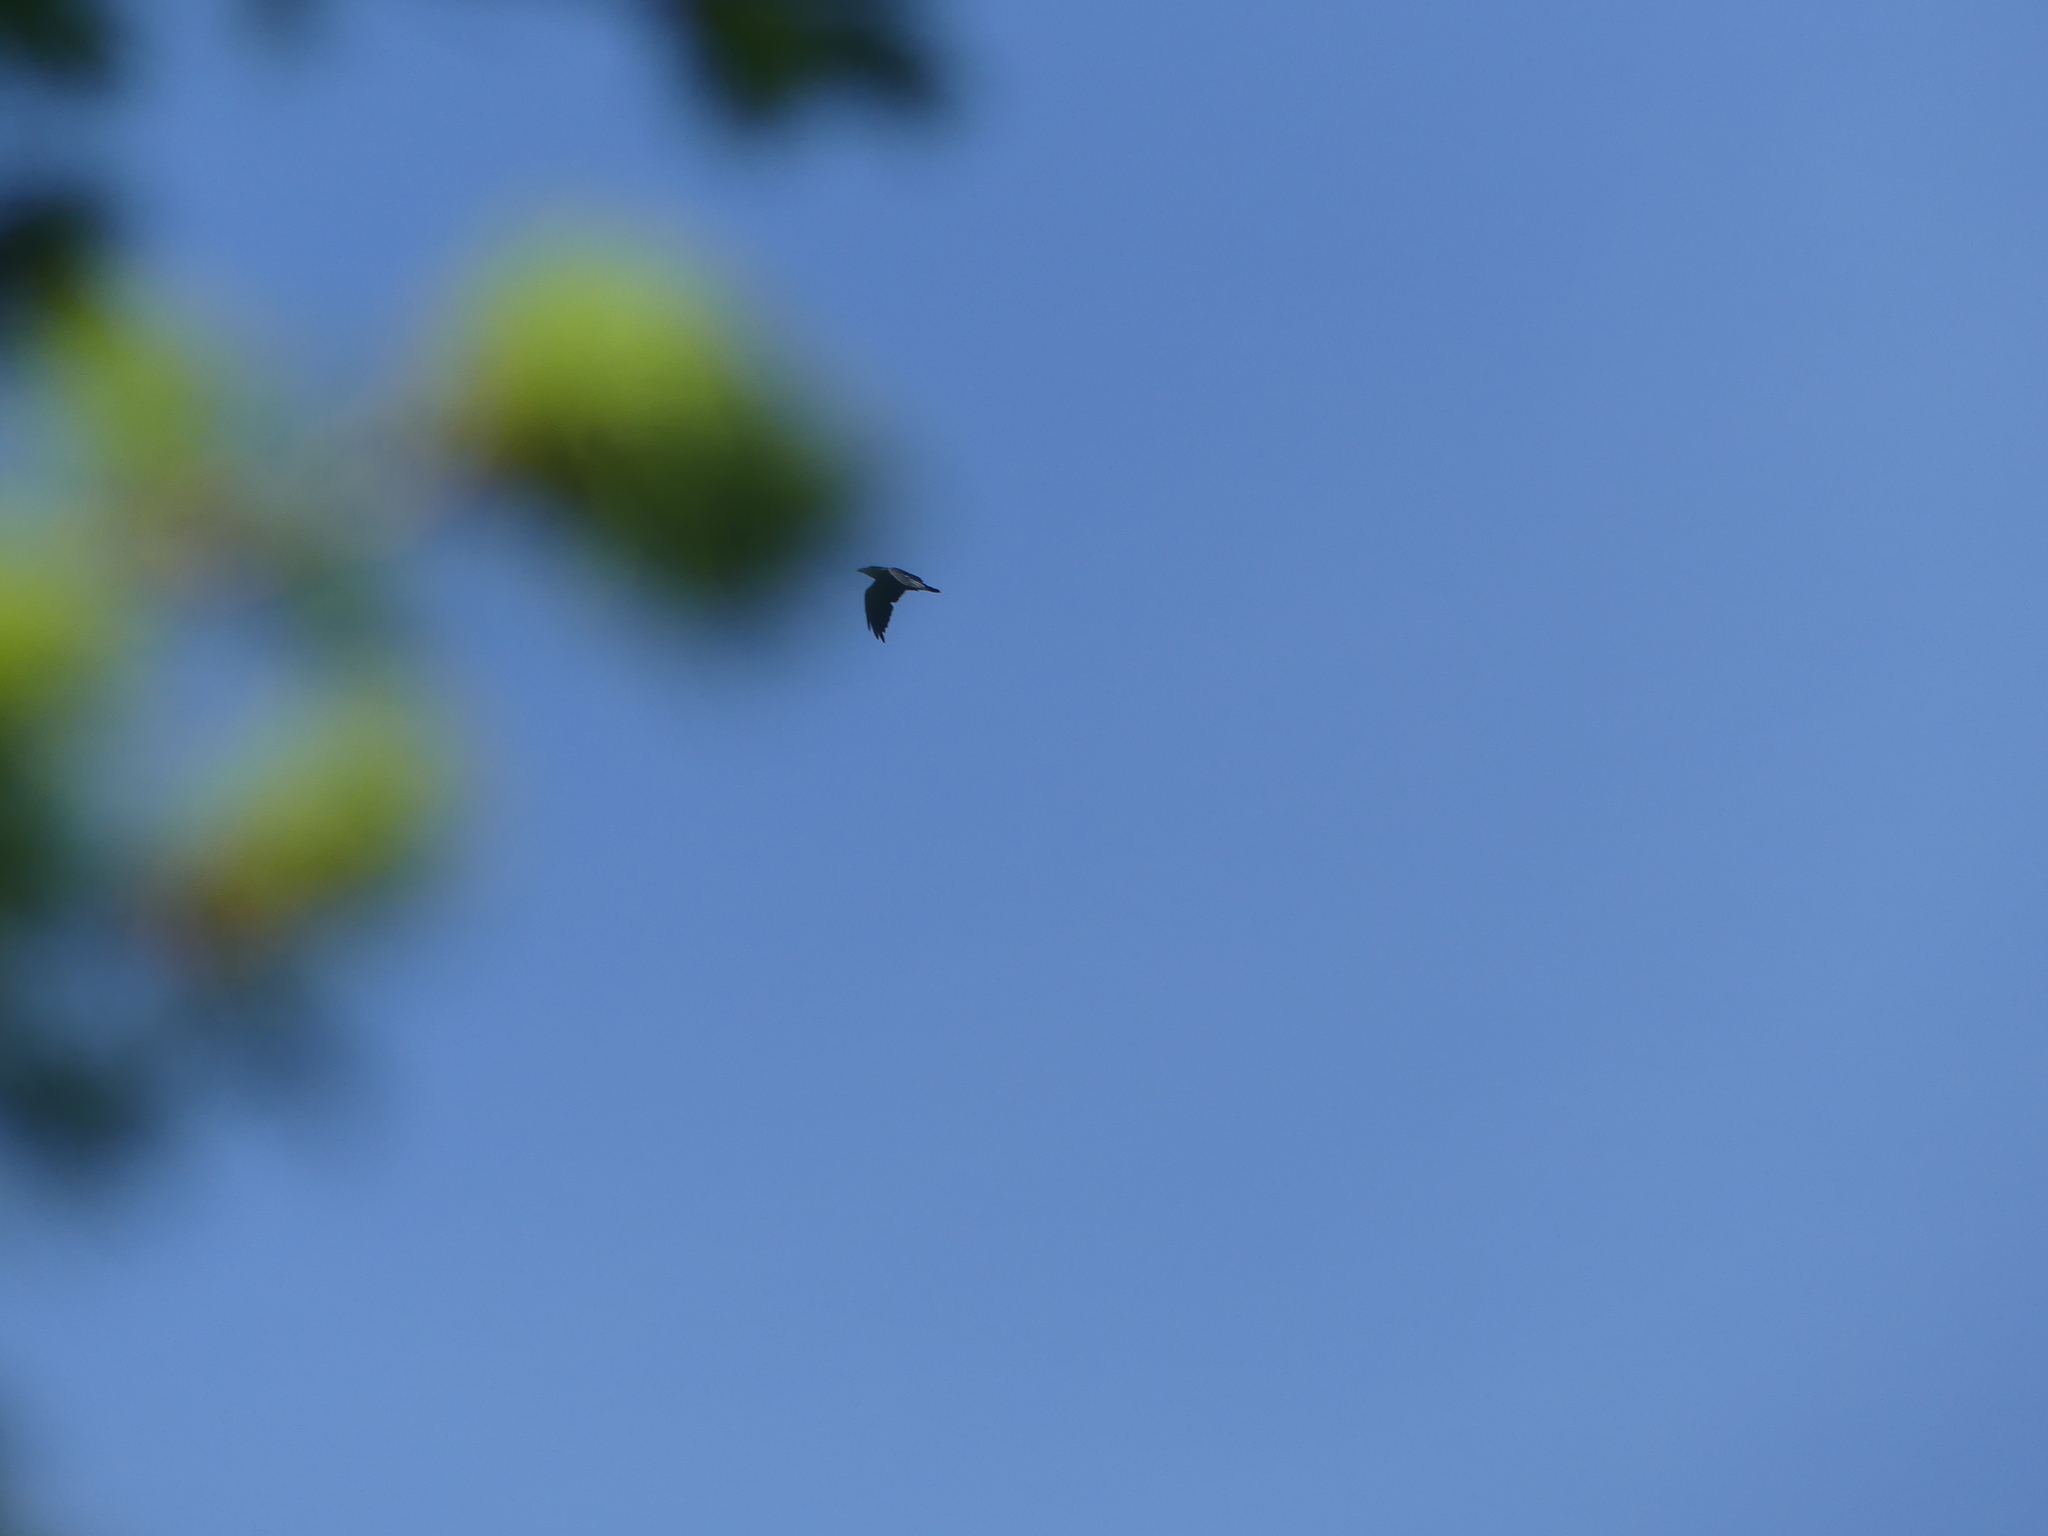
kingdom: Animalia
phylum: Chordata
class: Aves
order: Passeriformes
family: Corvidae
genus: Corvus
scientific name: Corvus corax
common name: Common raven
